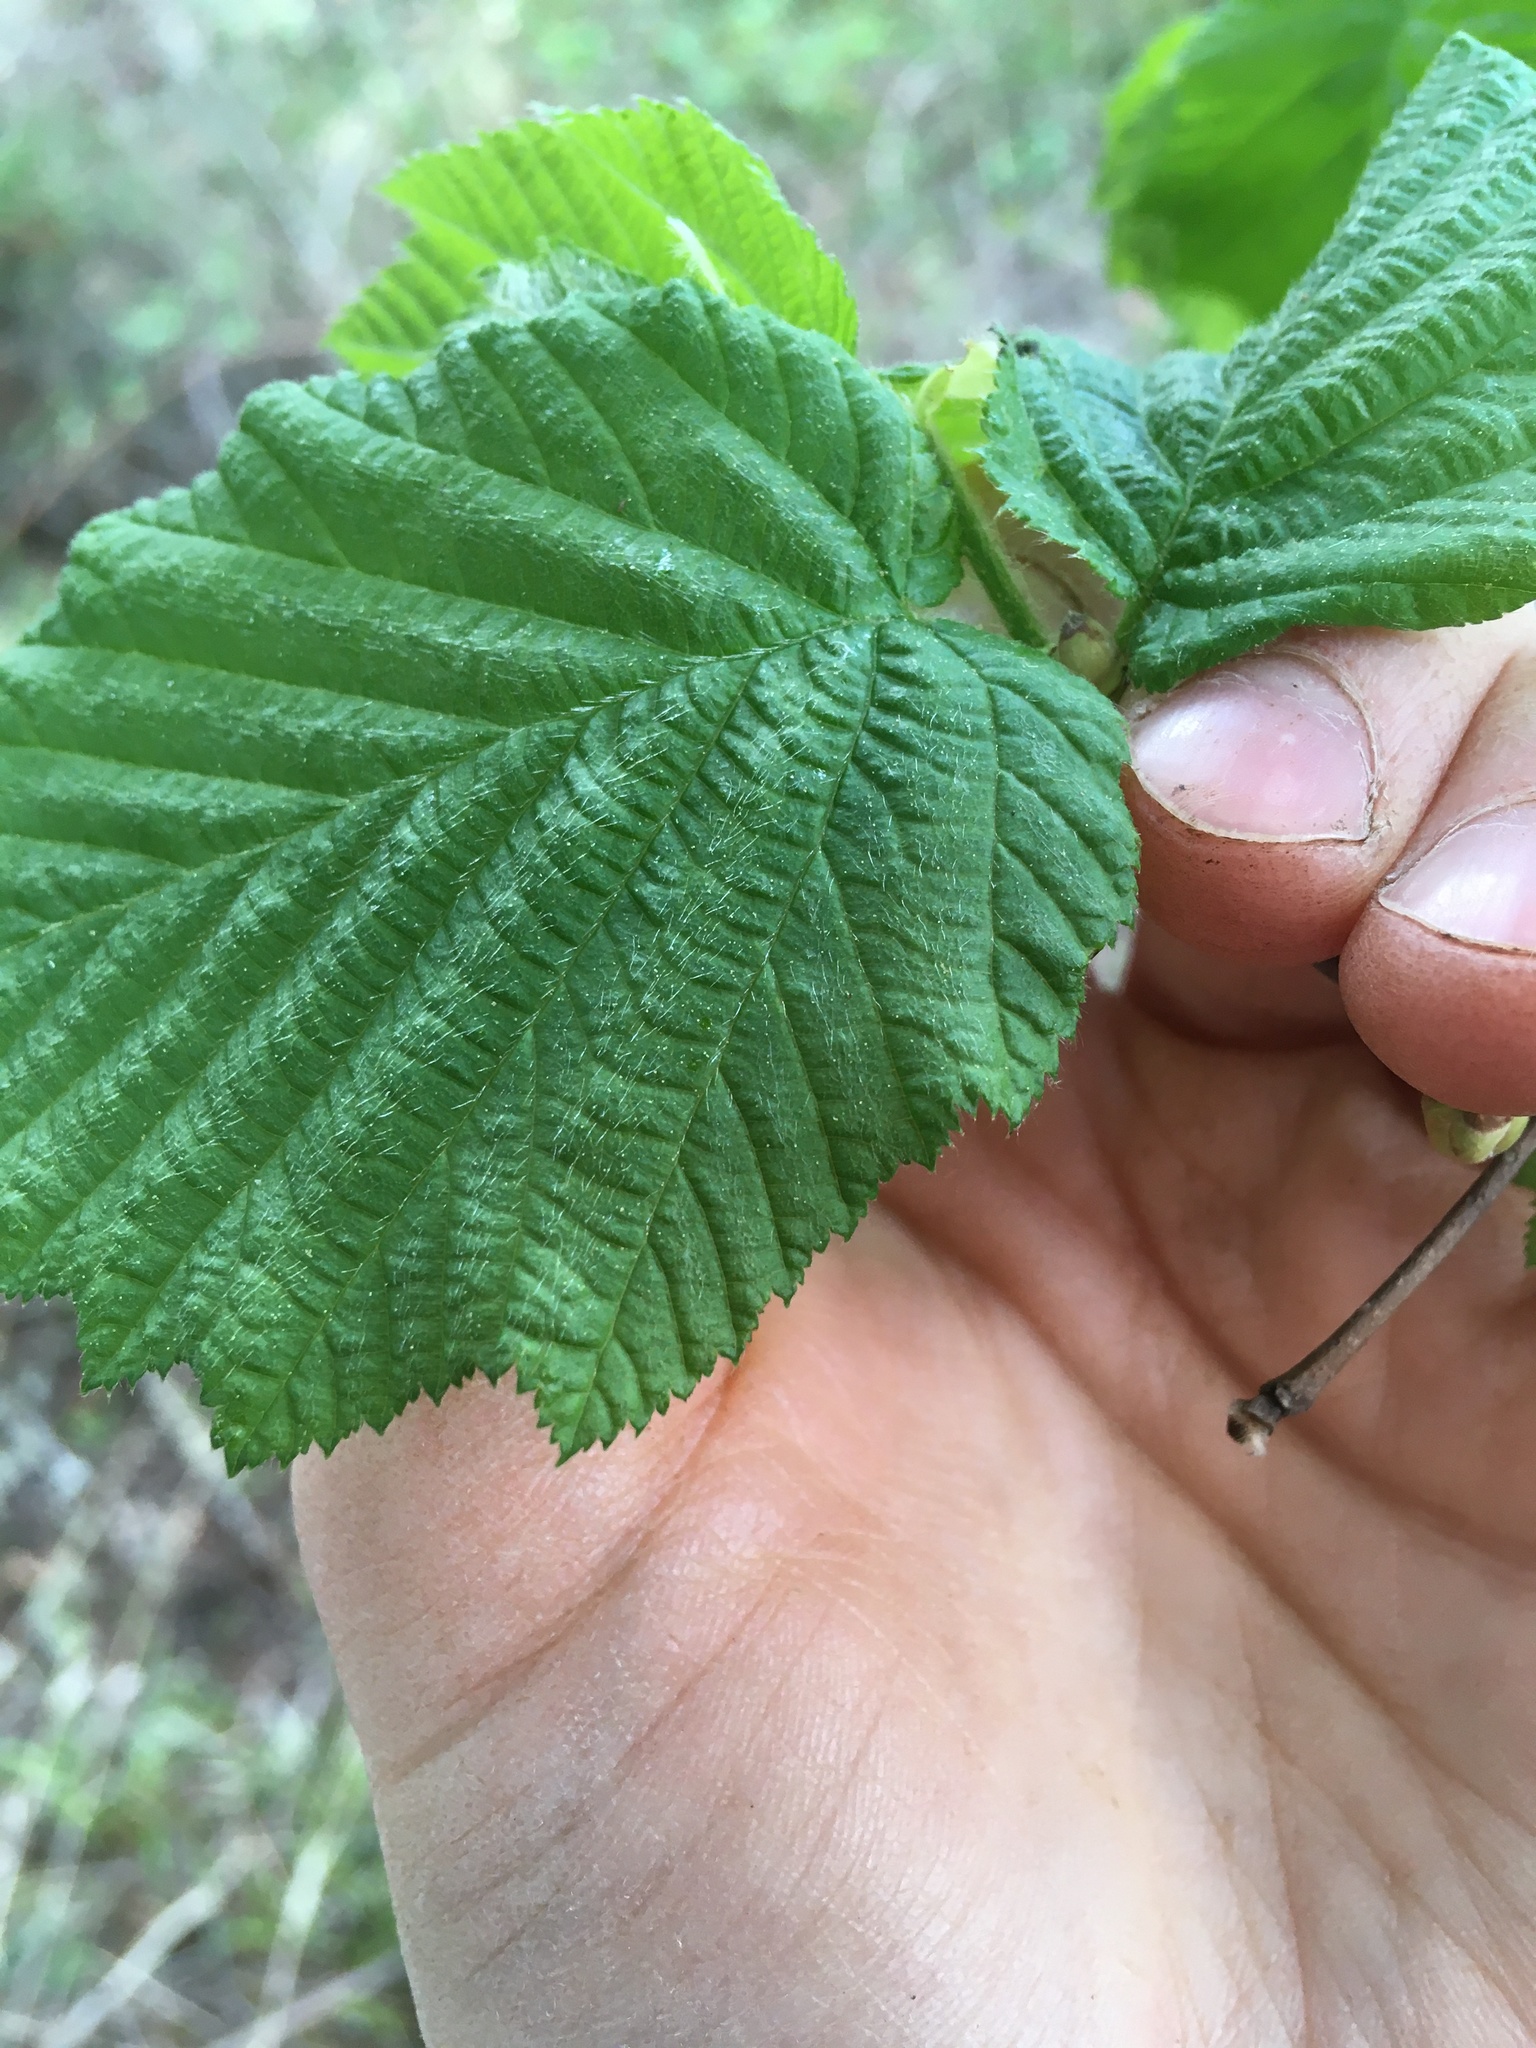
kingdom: Plantae
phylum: Tracheophyta
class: Magnoliopsida
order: Fagales
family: Betulaceae
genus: Corylus
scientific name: Corylus cornuta
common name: Beaked hazel
